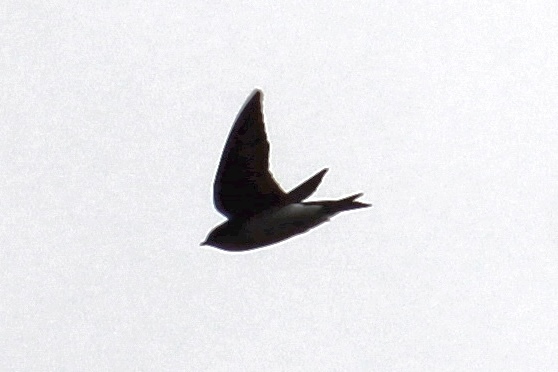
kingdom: Animalia
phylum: Chordata
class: Aves
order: Passeriformes
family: Hirundinidae
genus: Tachycineta
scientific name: Tachycineta bicolor
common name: Tree swallow
